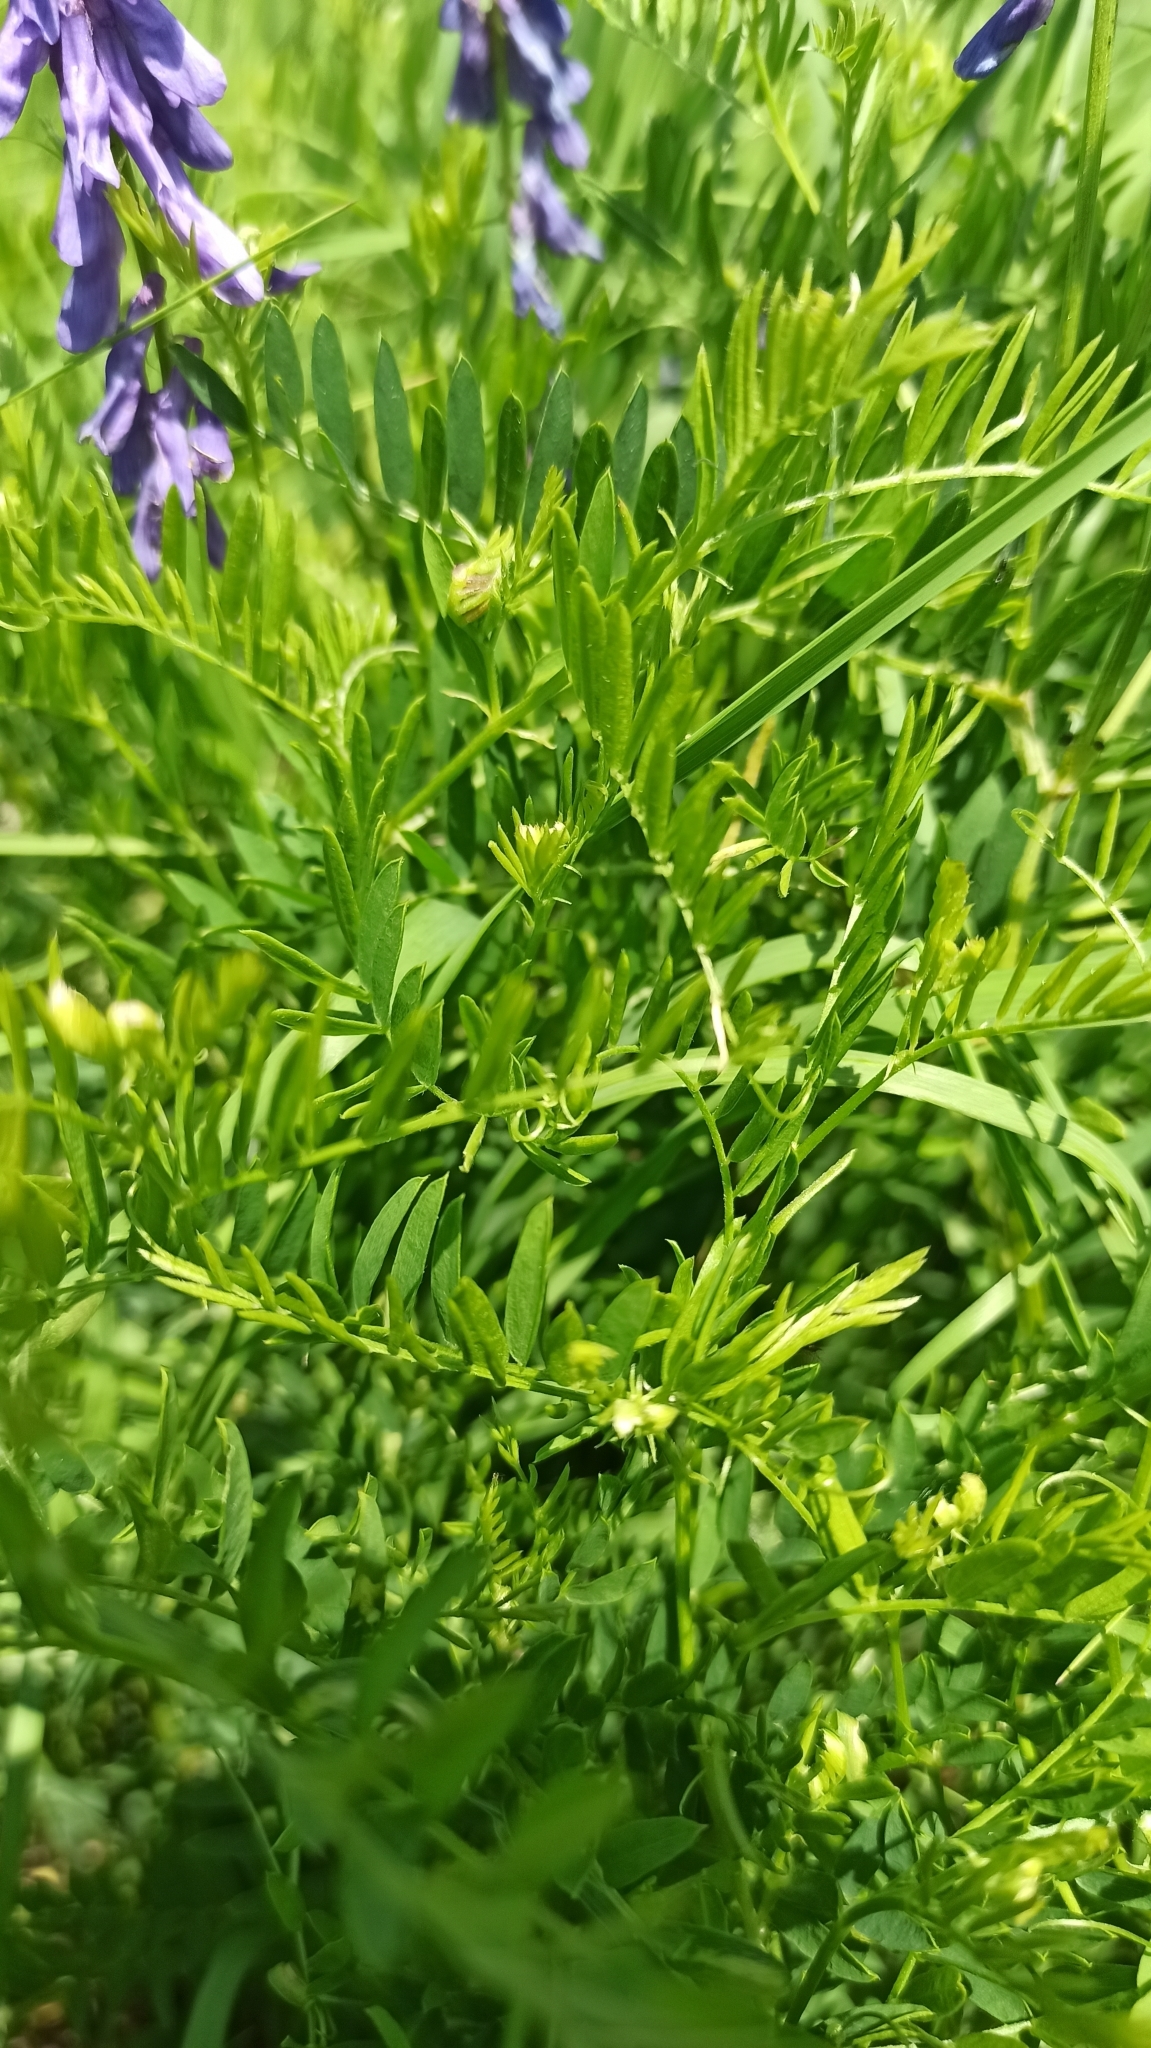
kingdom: Plantae
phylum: Tracheophyta
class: Magnoliopsida
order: Fabales
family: Fabaceae
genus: Vicia
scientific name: Vicia tenuifolia
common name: Fine-leaved vetch
